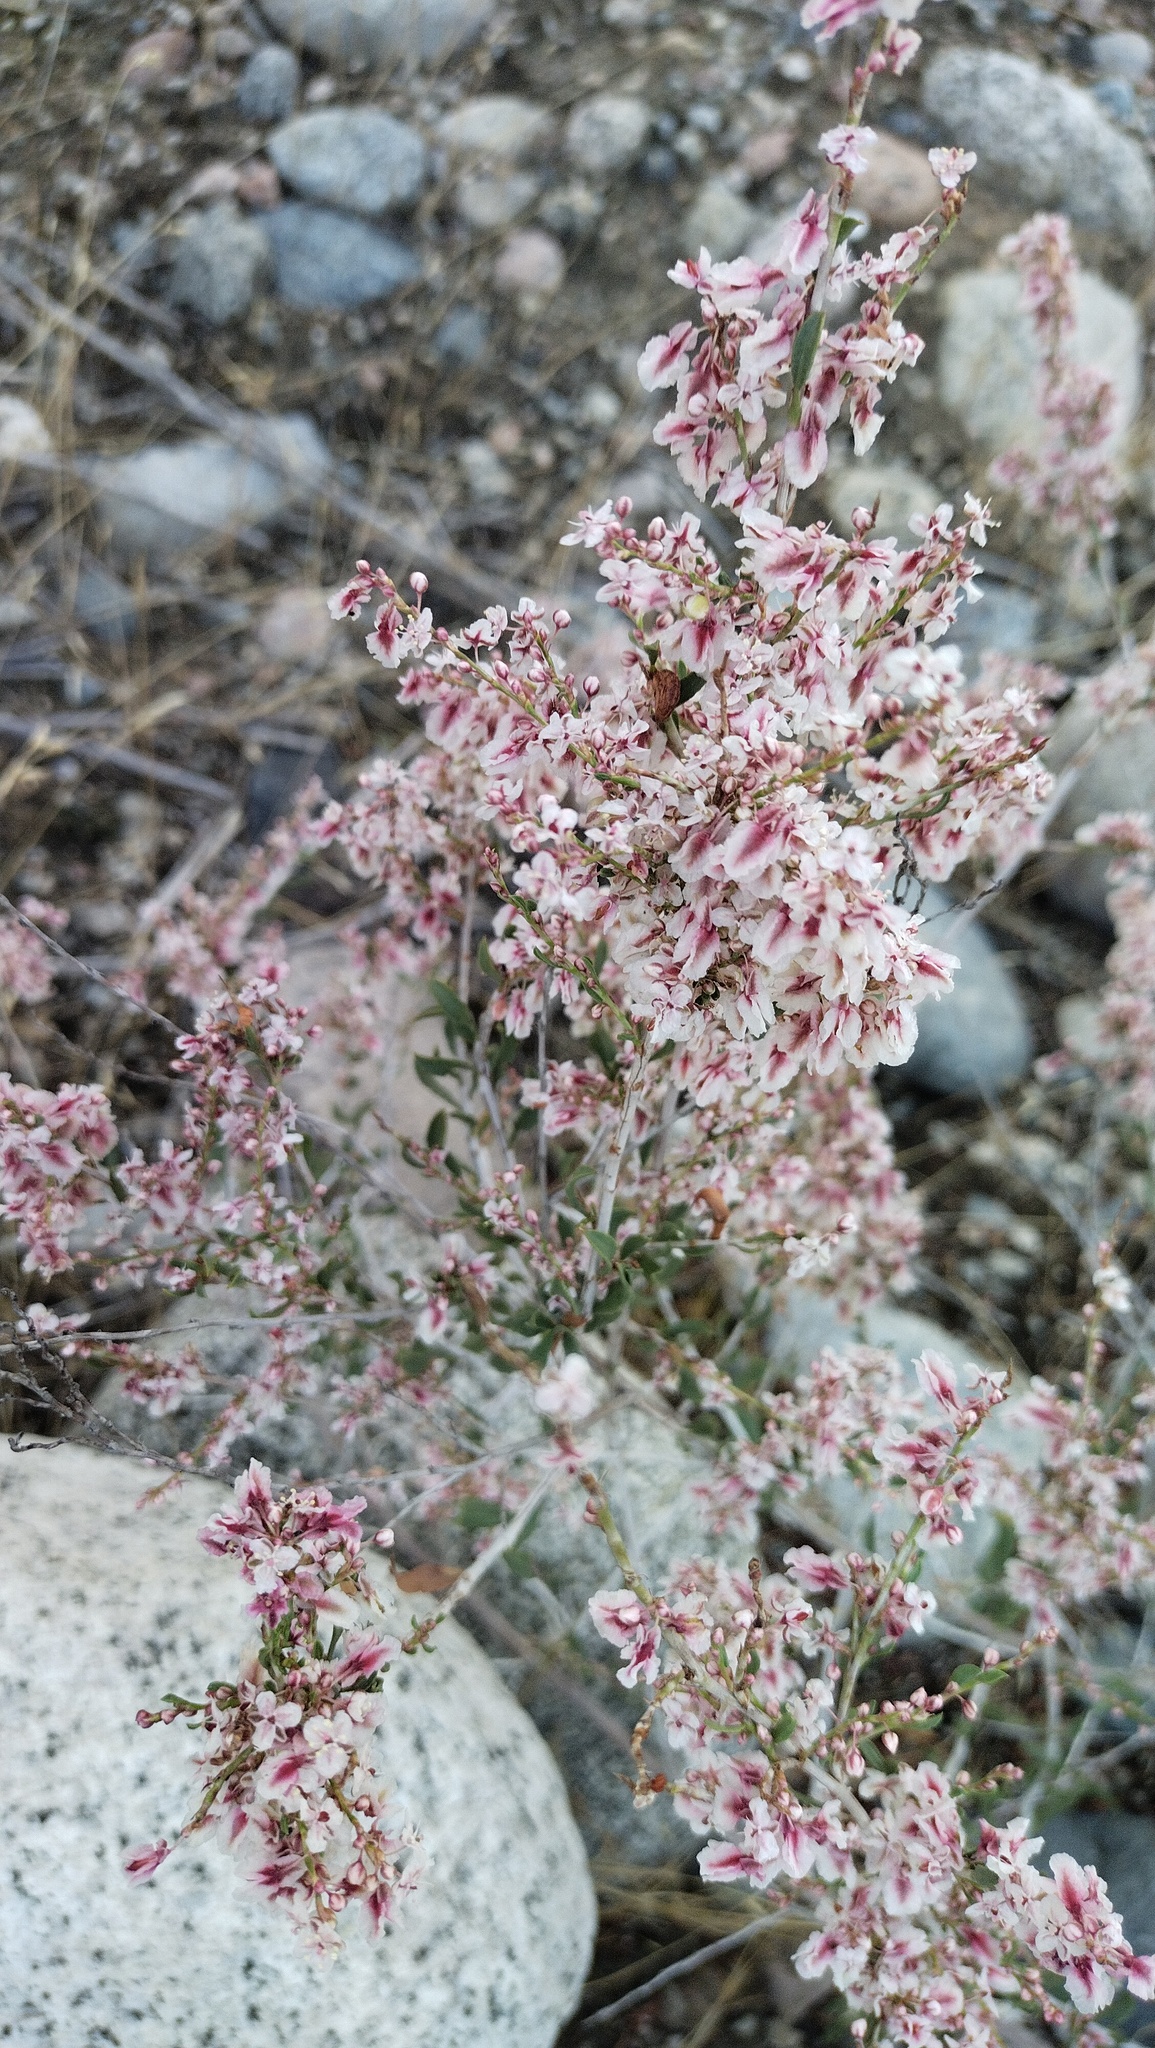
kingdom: Plantae
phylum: Tracheophyta
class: Magnoliopsida
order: Caryophyllales
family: Polygonaceae
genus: Atraphaxis
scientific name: Atraphaxis frutescens
